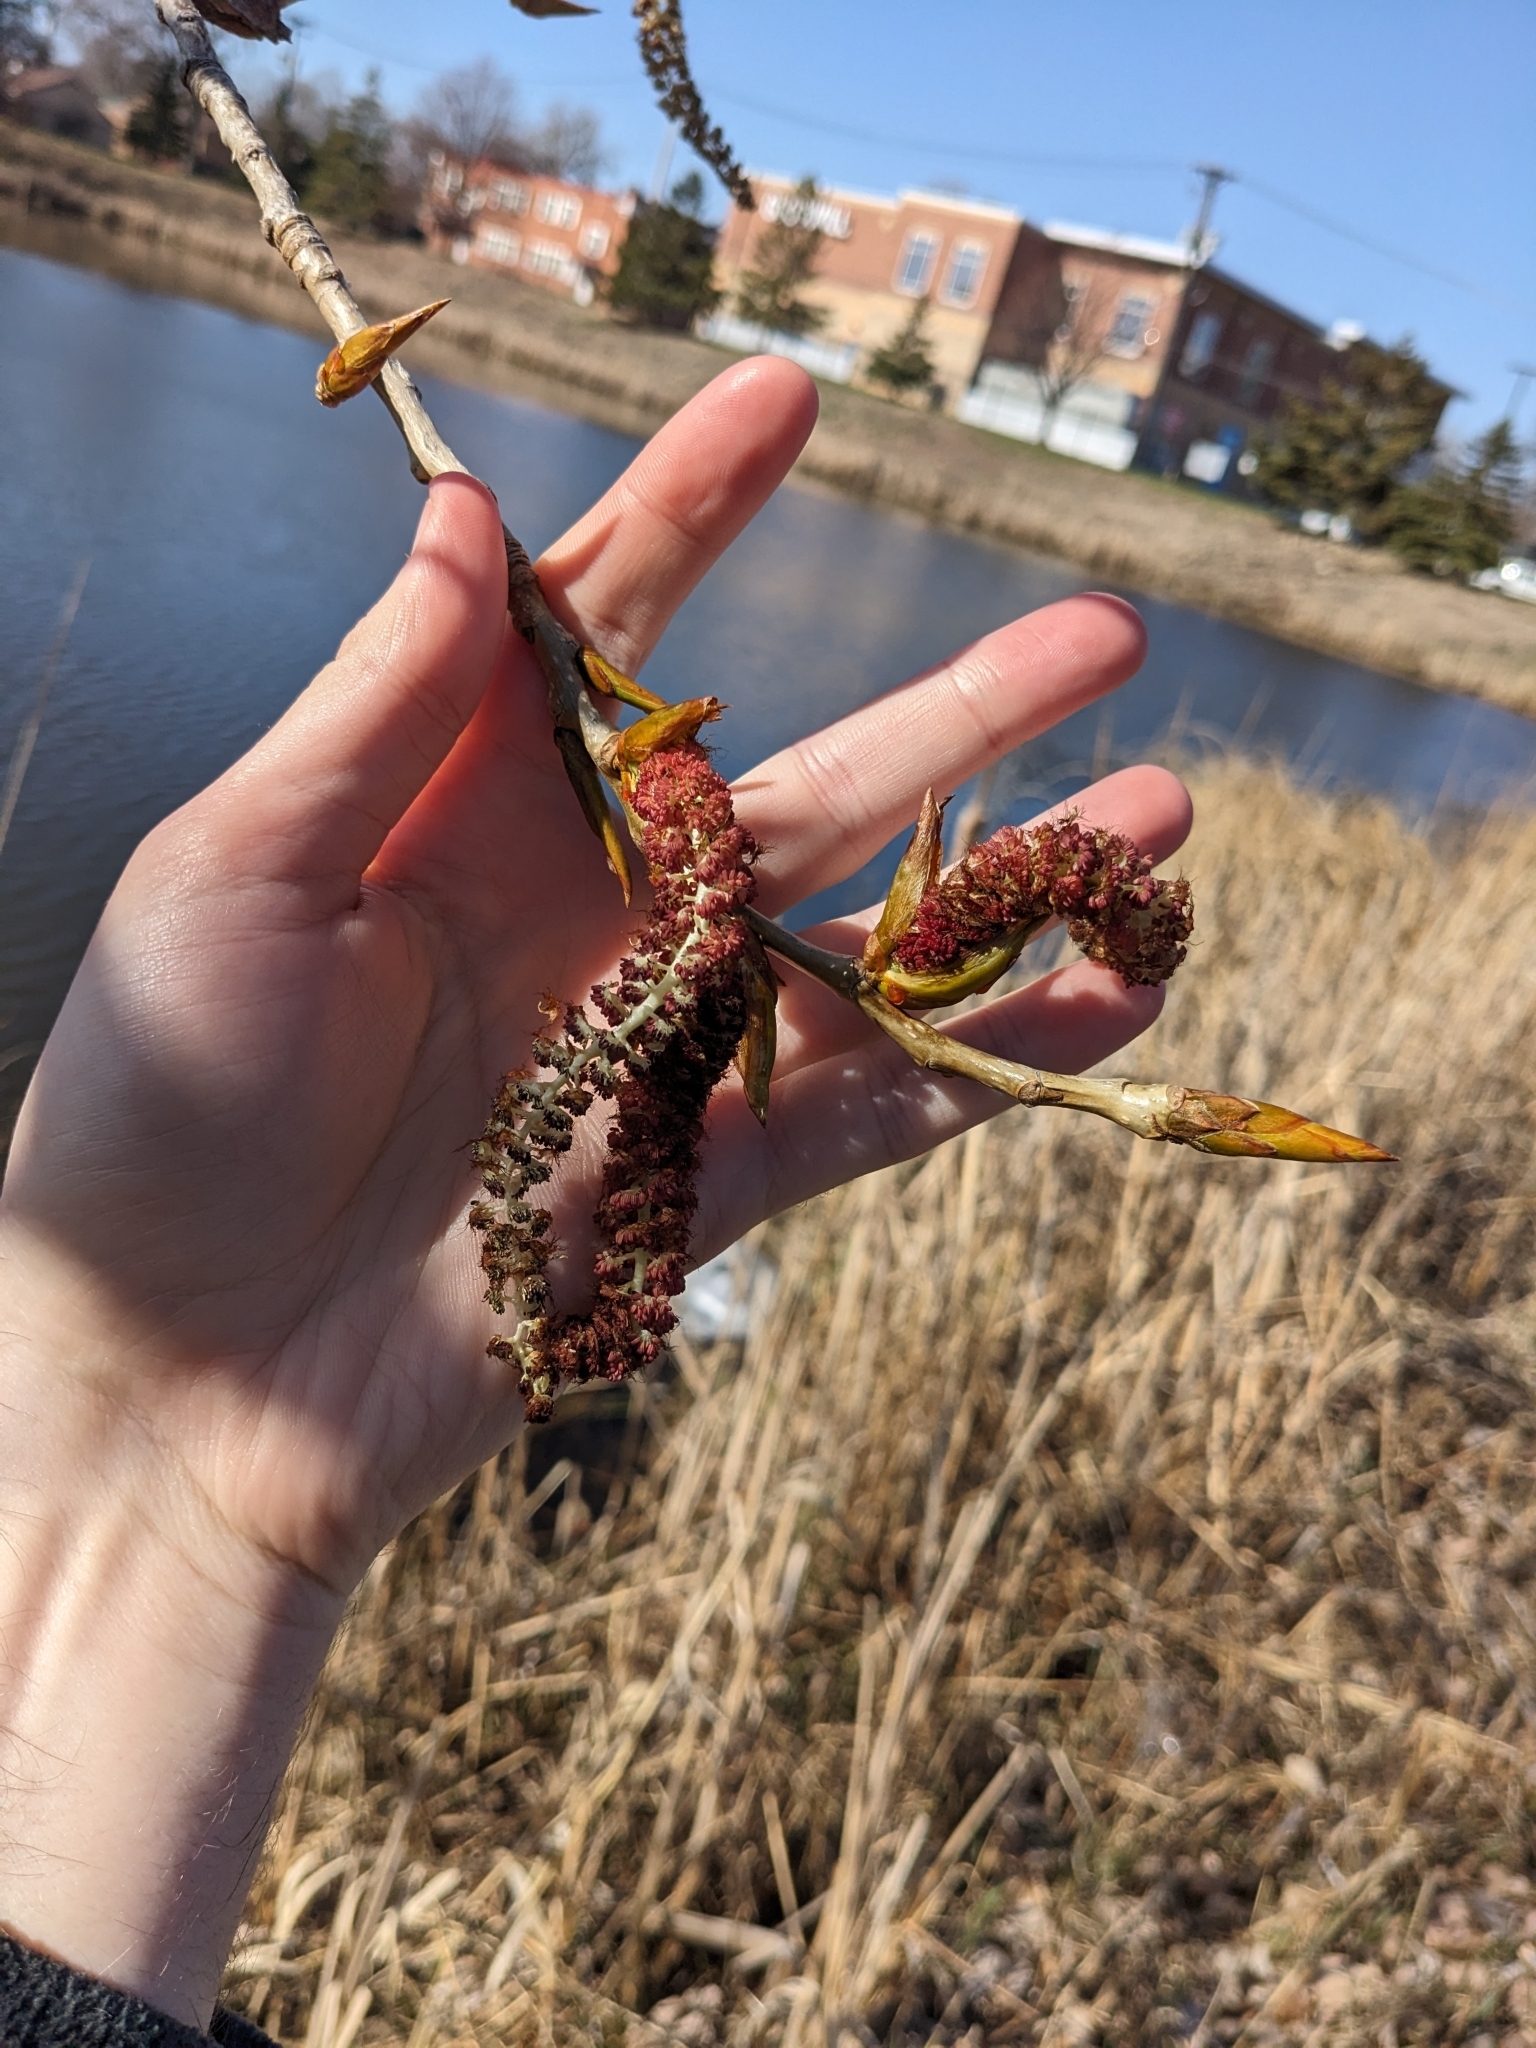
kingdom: Plantae
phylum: Tracheophyta
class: Magnoliopsida
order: Malpighiales
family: Salicaceae
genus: Populus
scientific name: Populus deltoides
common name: Eastern cottonwood
